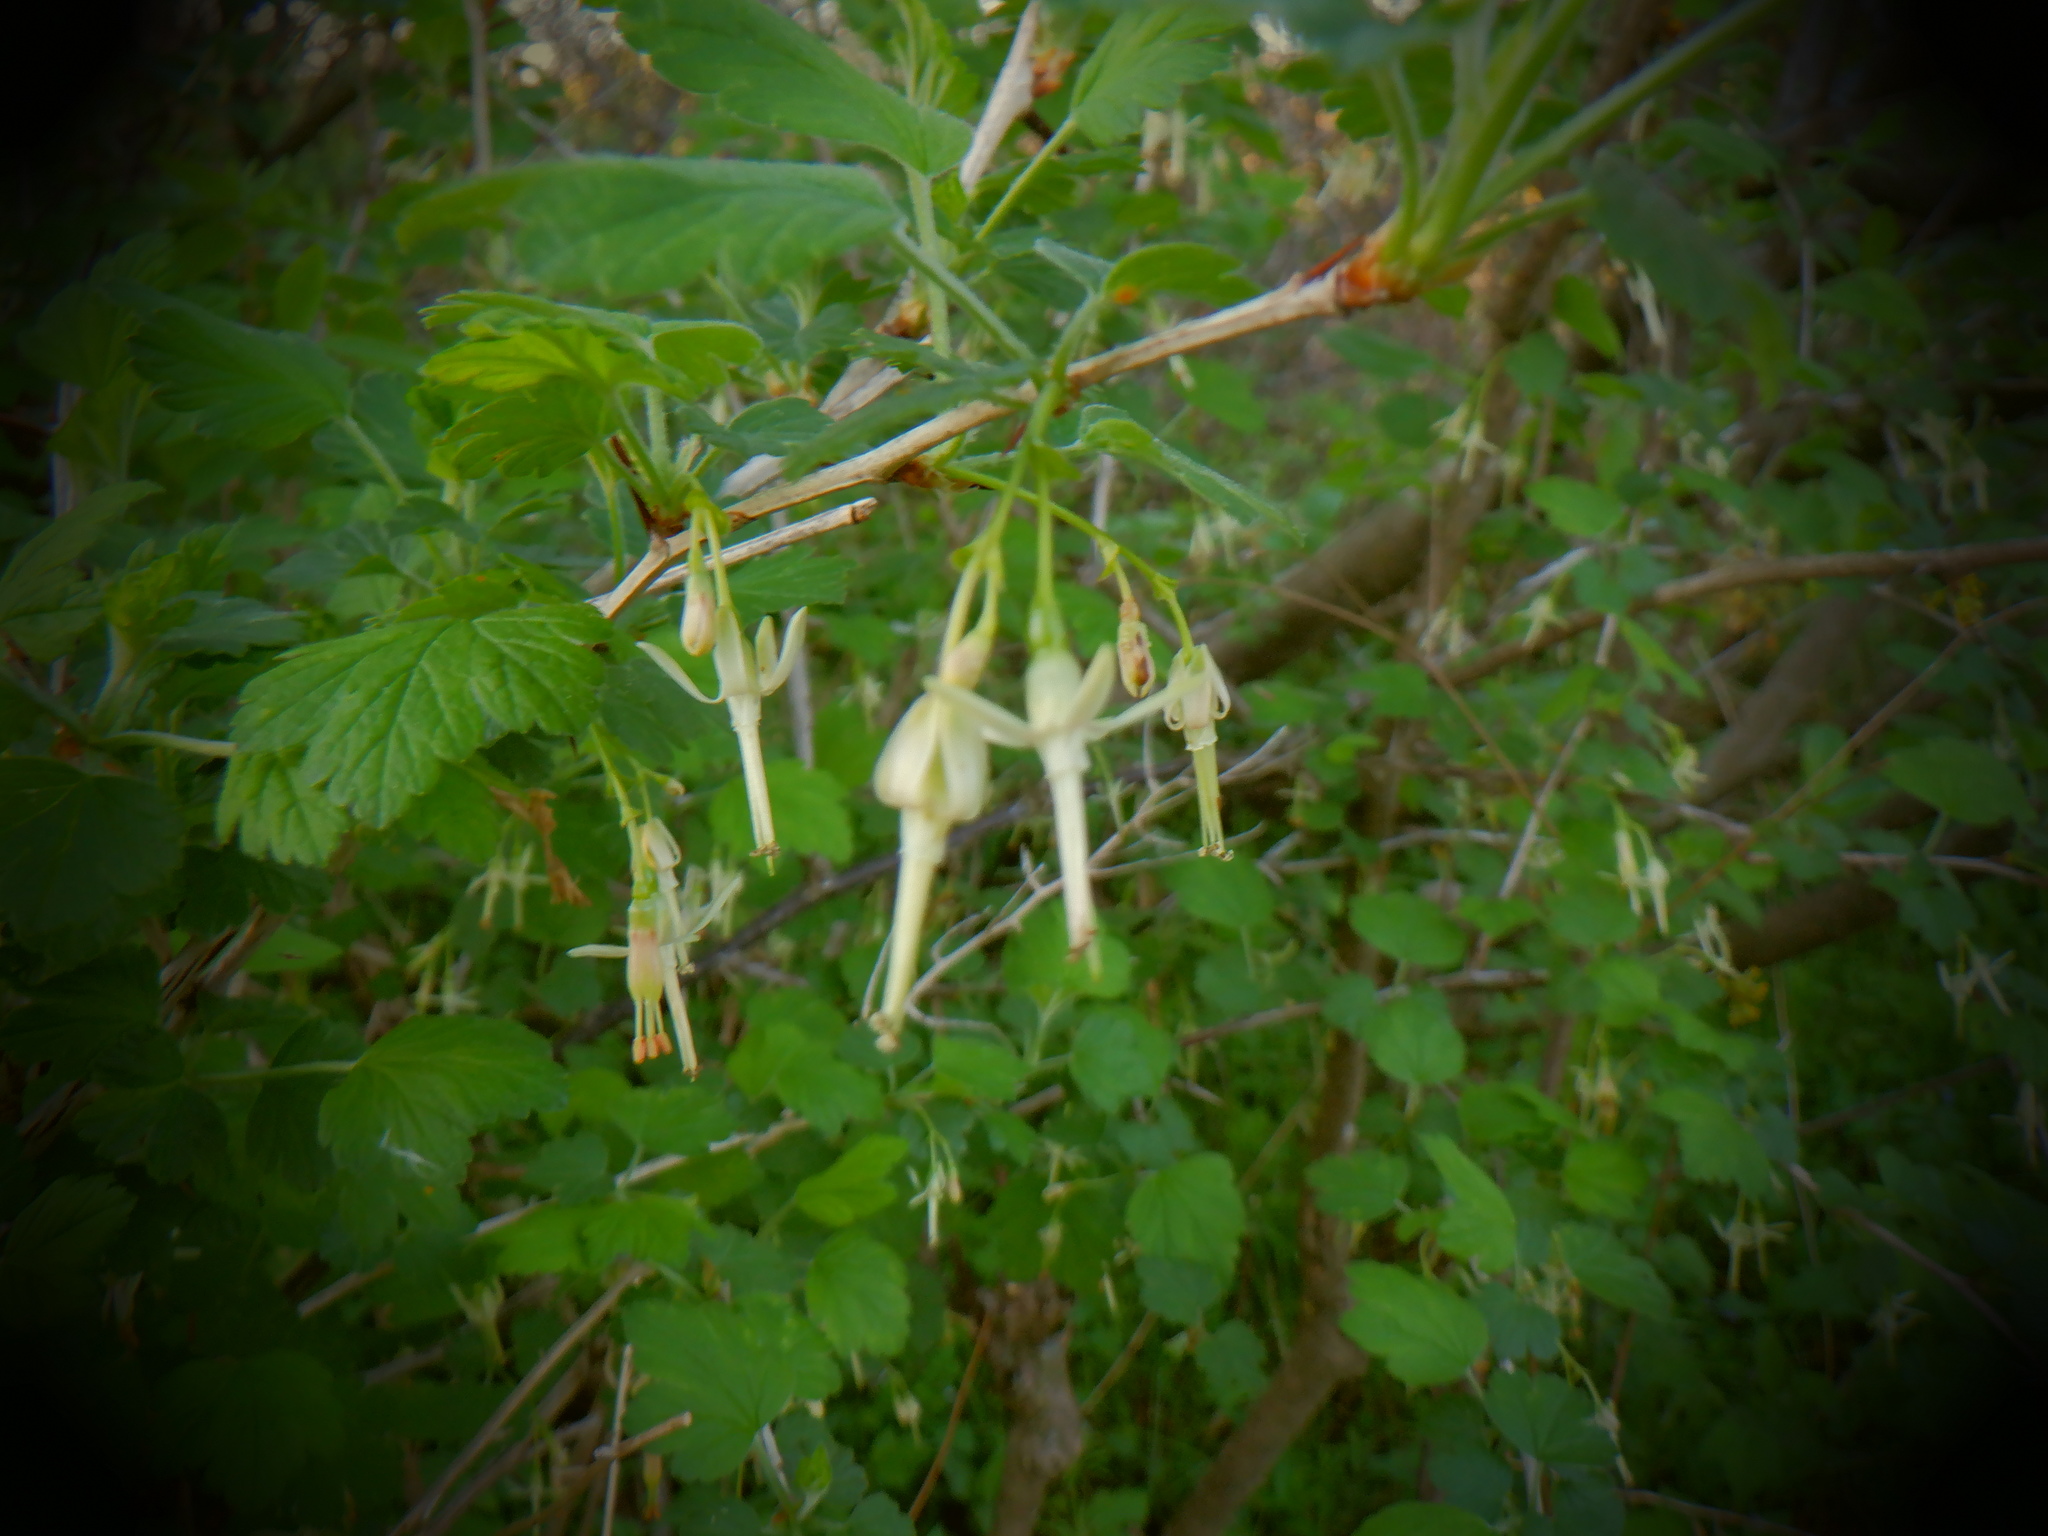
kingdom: Plantae
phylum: Tracheophyta
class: Magnoliopsida
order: Saxifragales
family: Grossulariaceae
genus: Ribes
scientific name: Ribes missouriense
